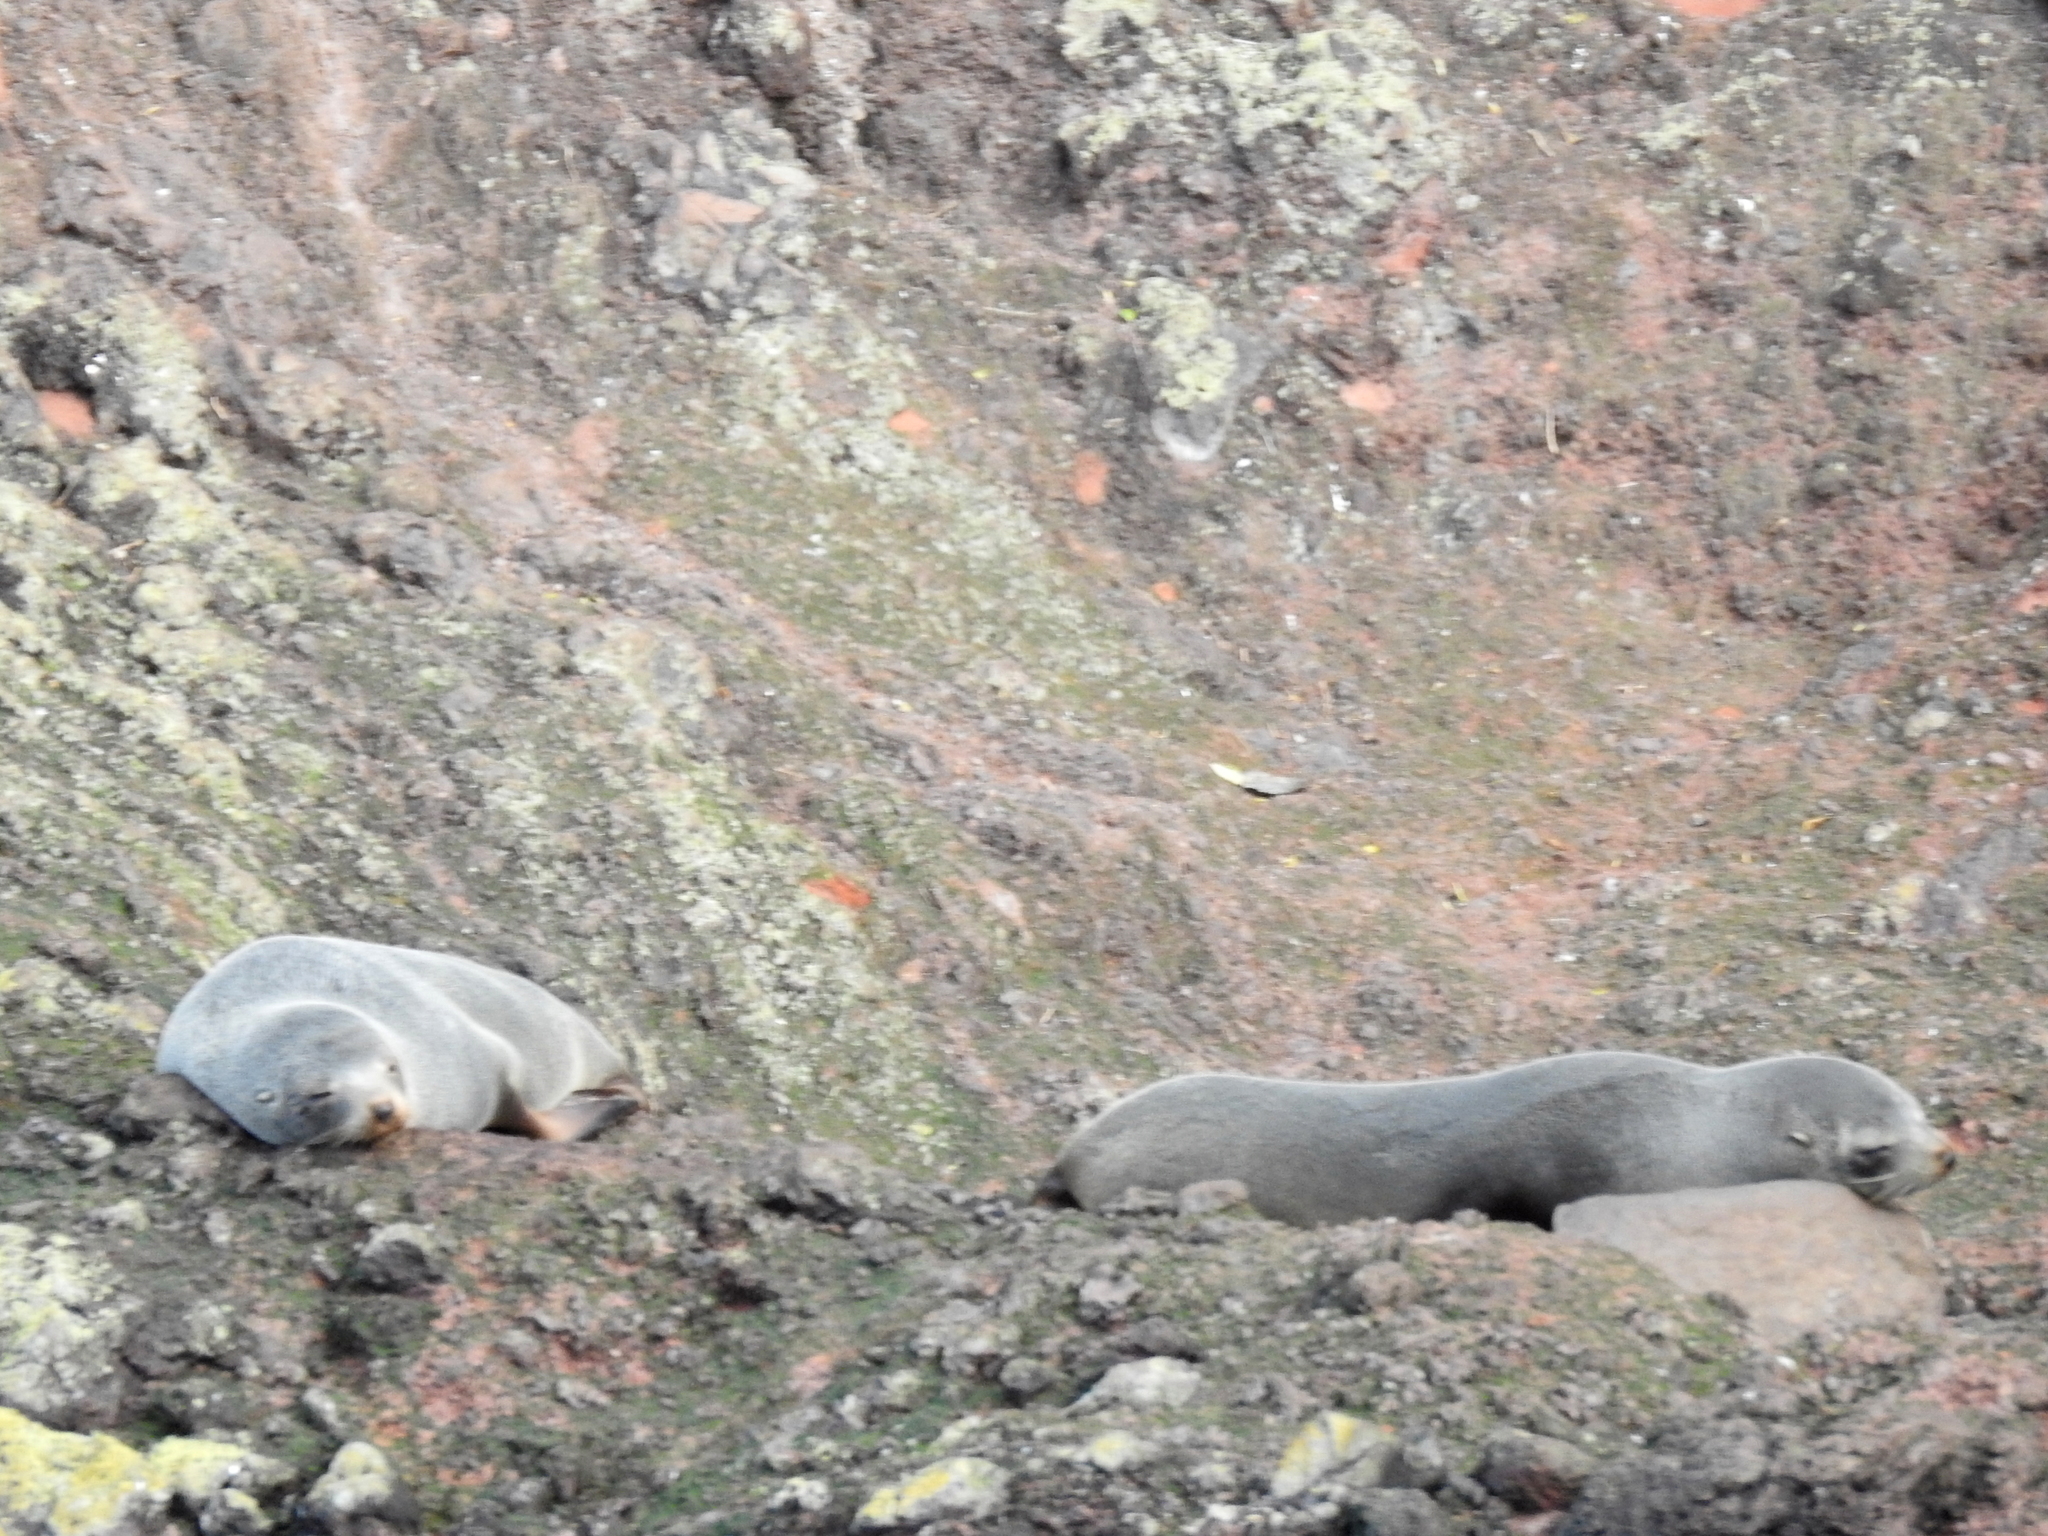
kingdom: Animalia
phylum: Chordata
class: Mammalia
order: Carnivora
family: Otariidae
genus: Arctocephalus
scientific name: Arctocephalus forsteri
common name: New zealand fur seal
